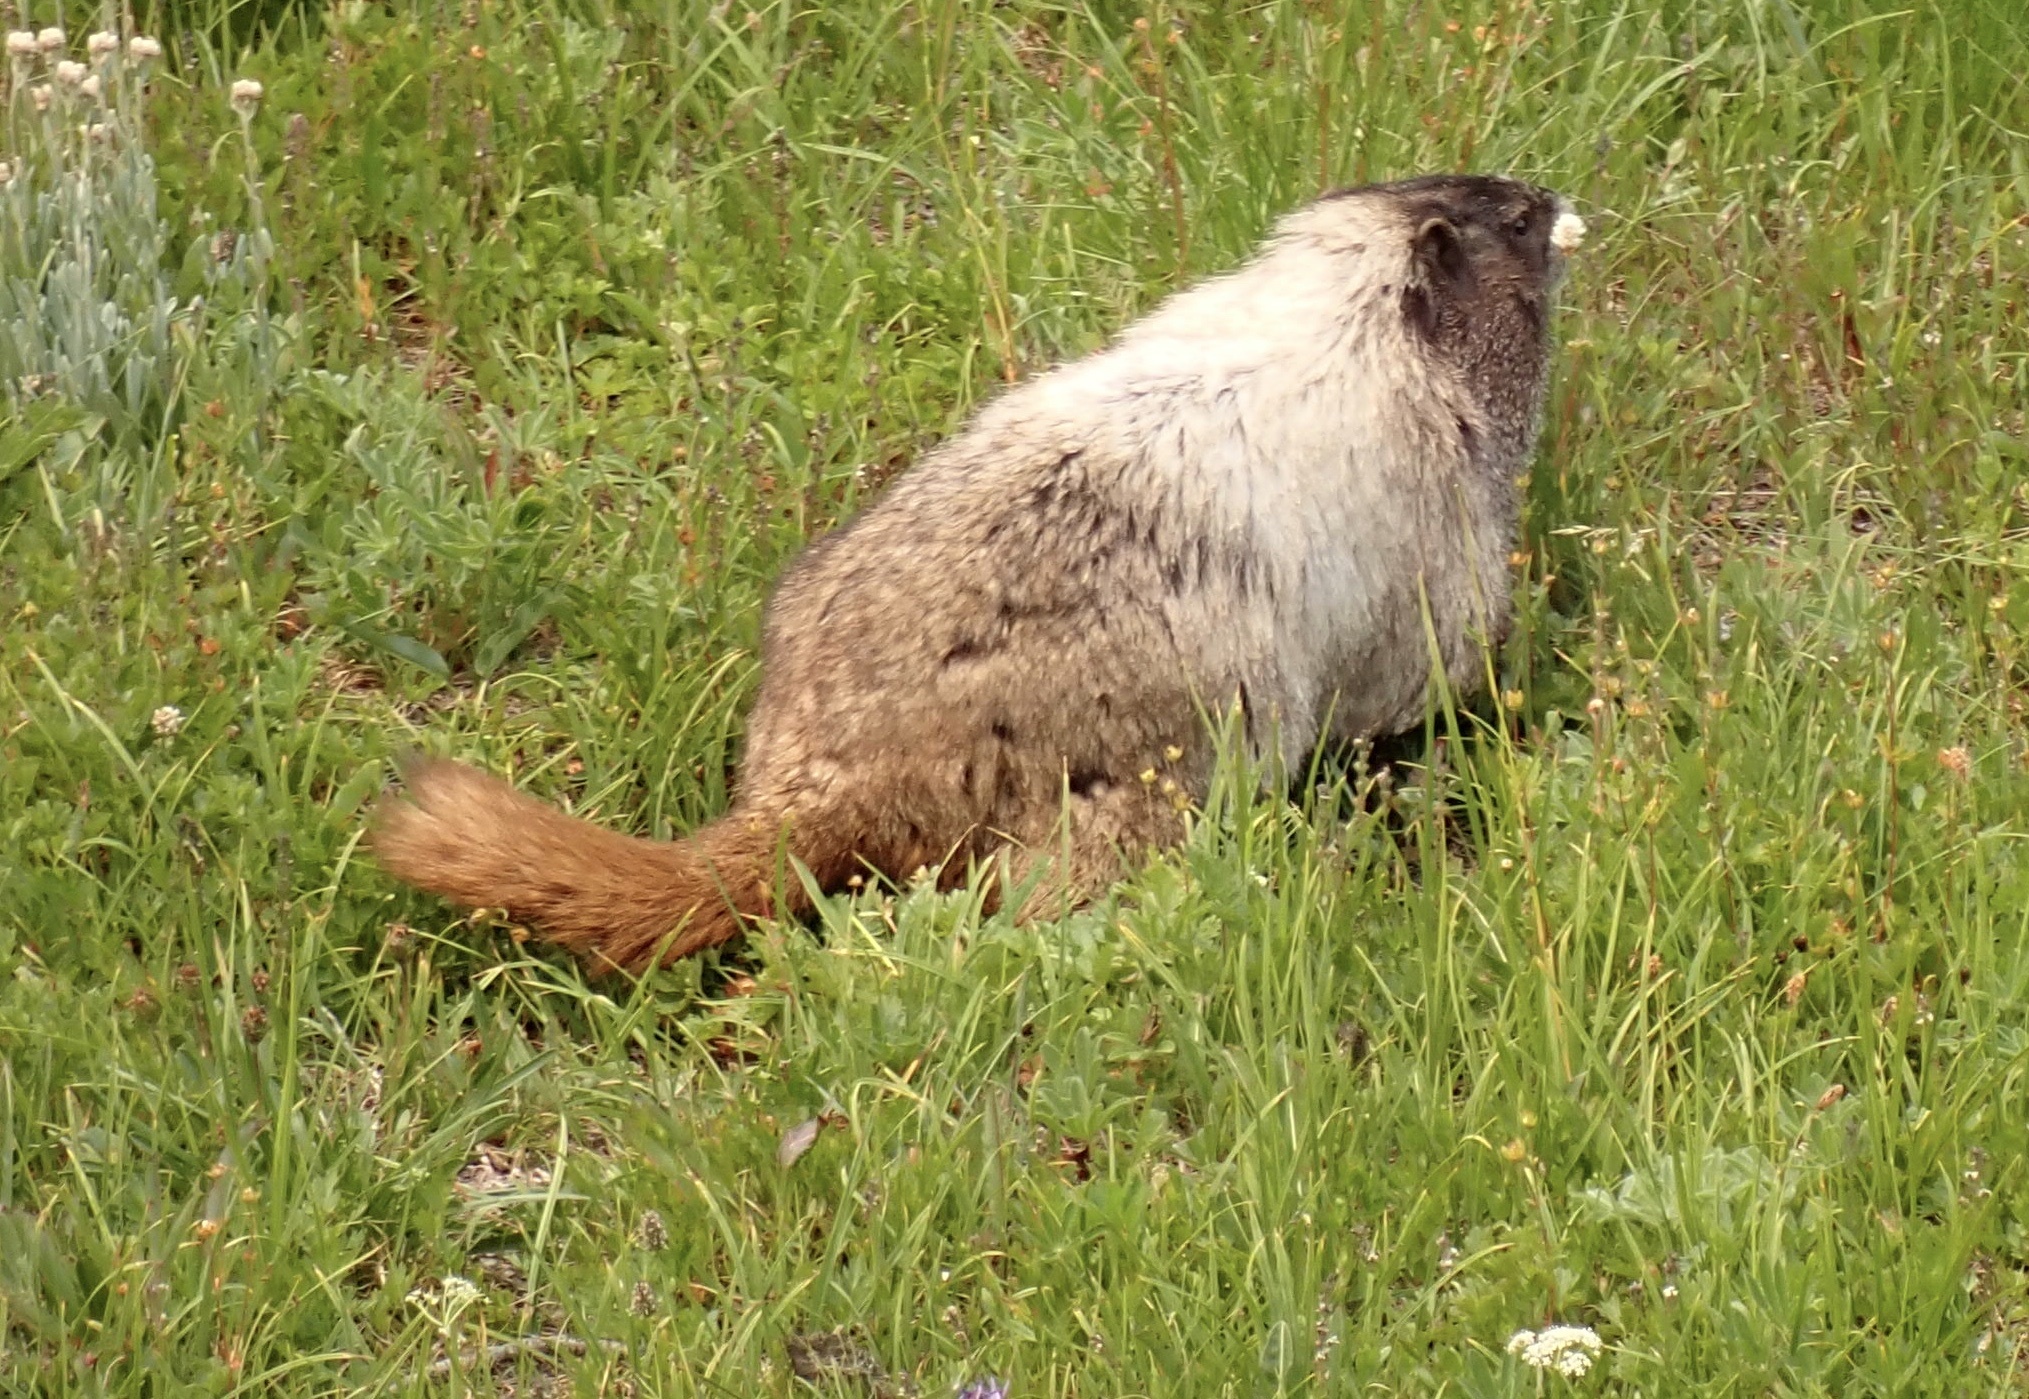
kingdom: Animalia
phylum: Chordata
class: Mammalia
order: Rodentia
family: Sciuridae
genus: Marmota
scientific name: Marmota caligata
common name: Hoary marmot
